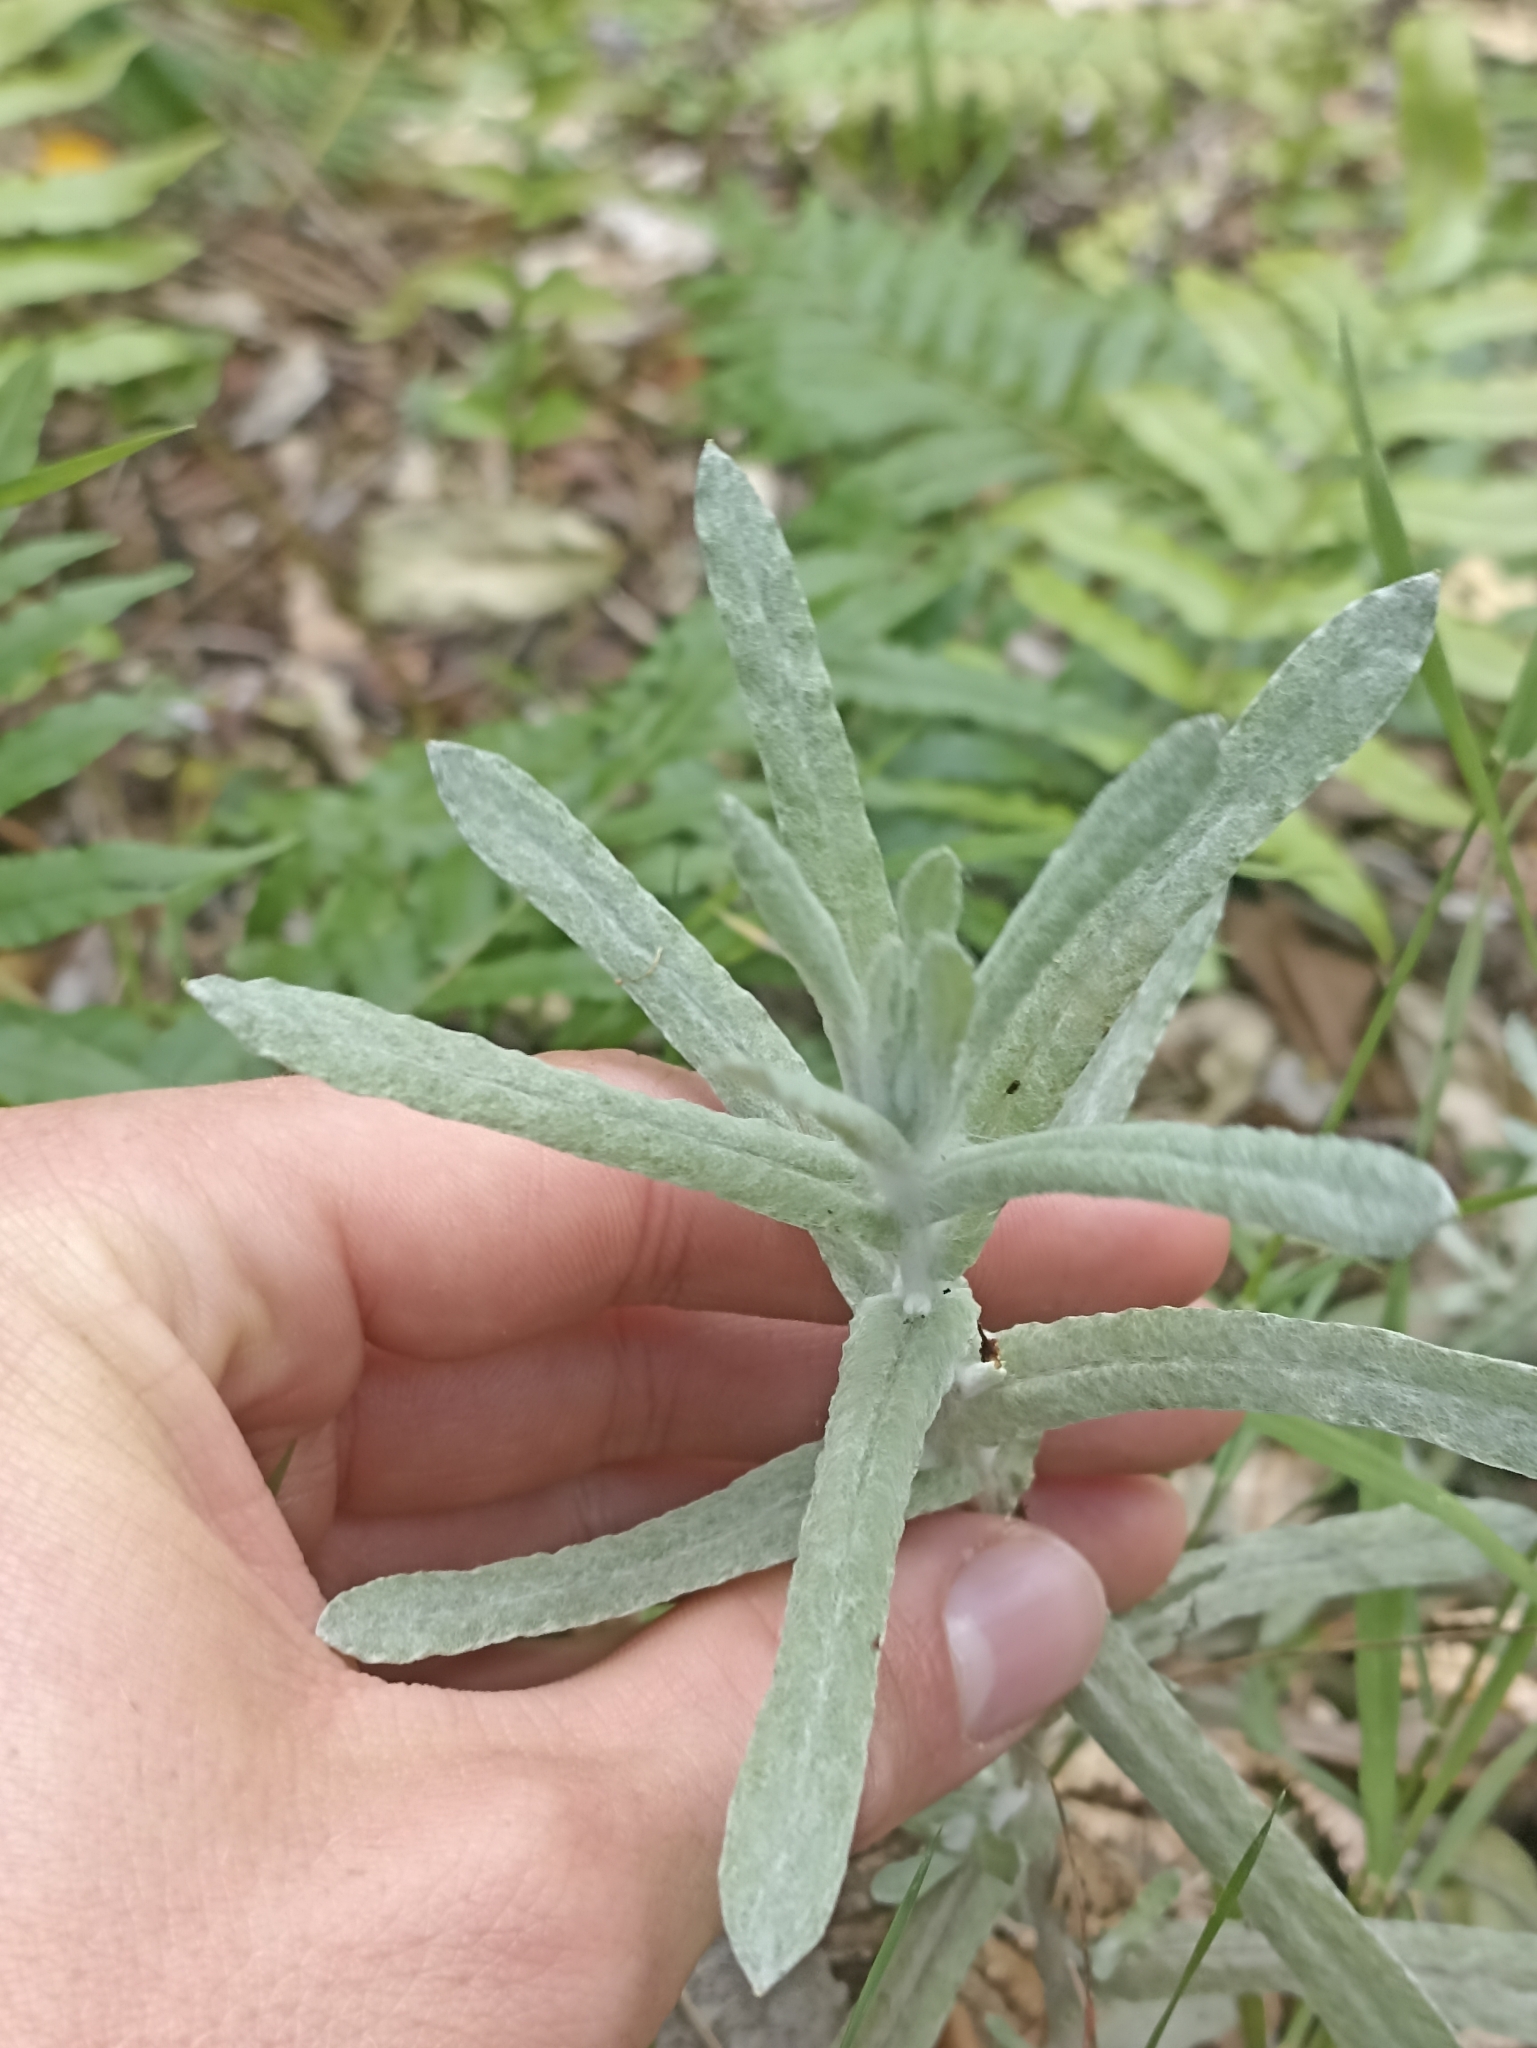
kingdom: Plantae
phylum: Tracheophyta
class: Magnoliopsida
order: Asterales
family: Asteraceae
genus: Helichrysum
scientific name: Helichrysum luteoalbum
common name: Daisy
